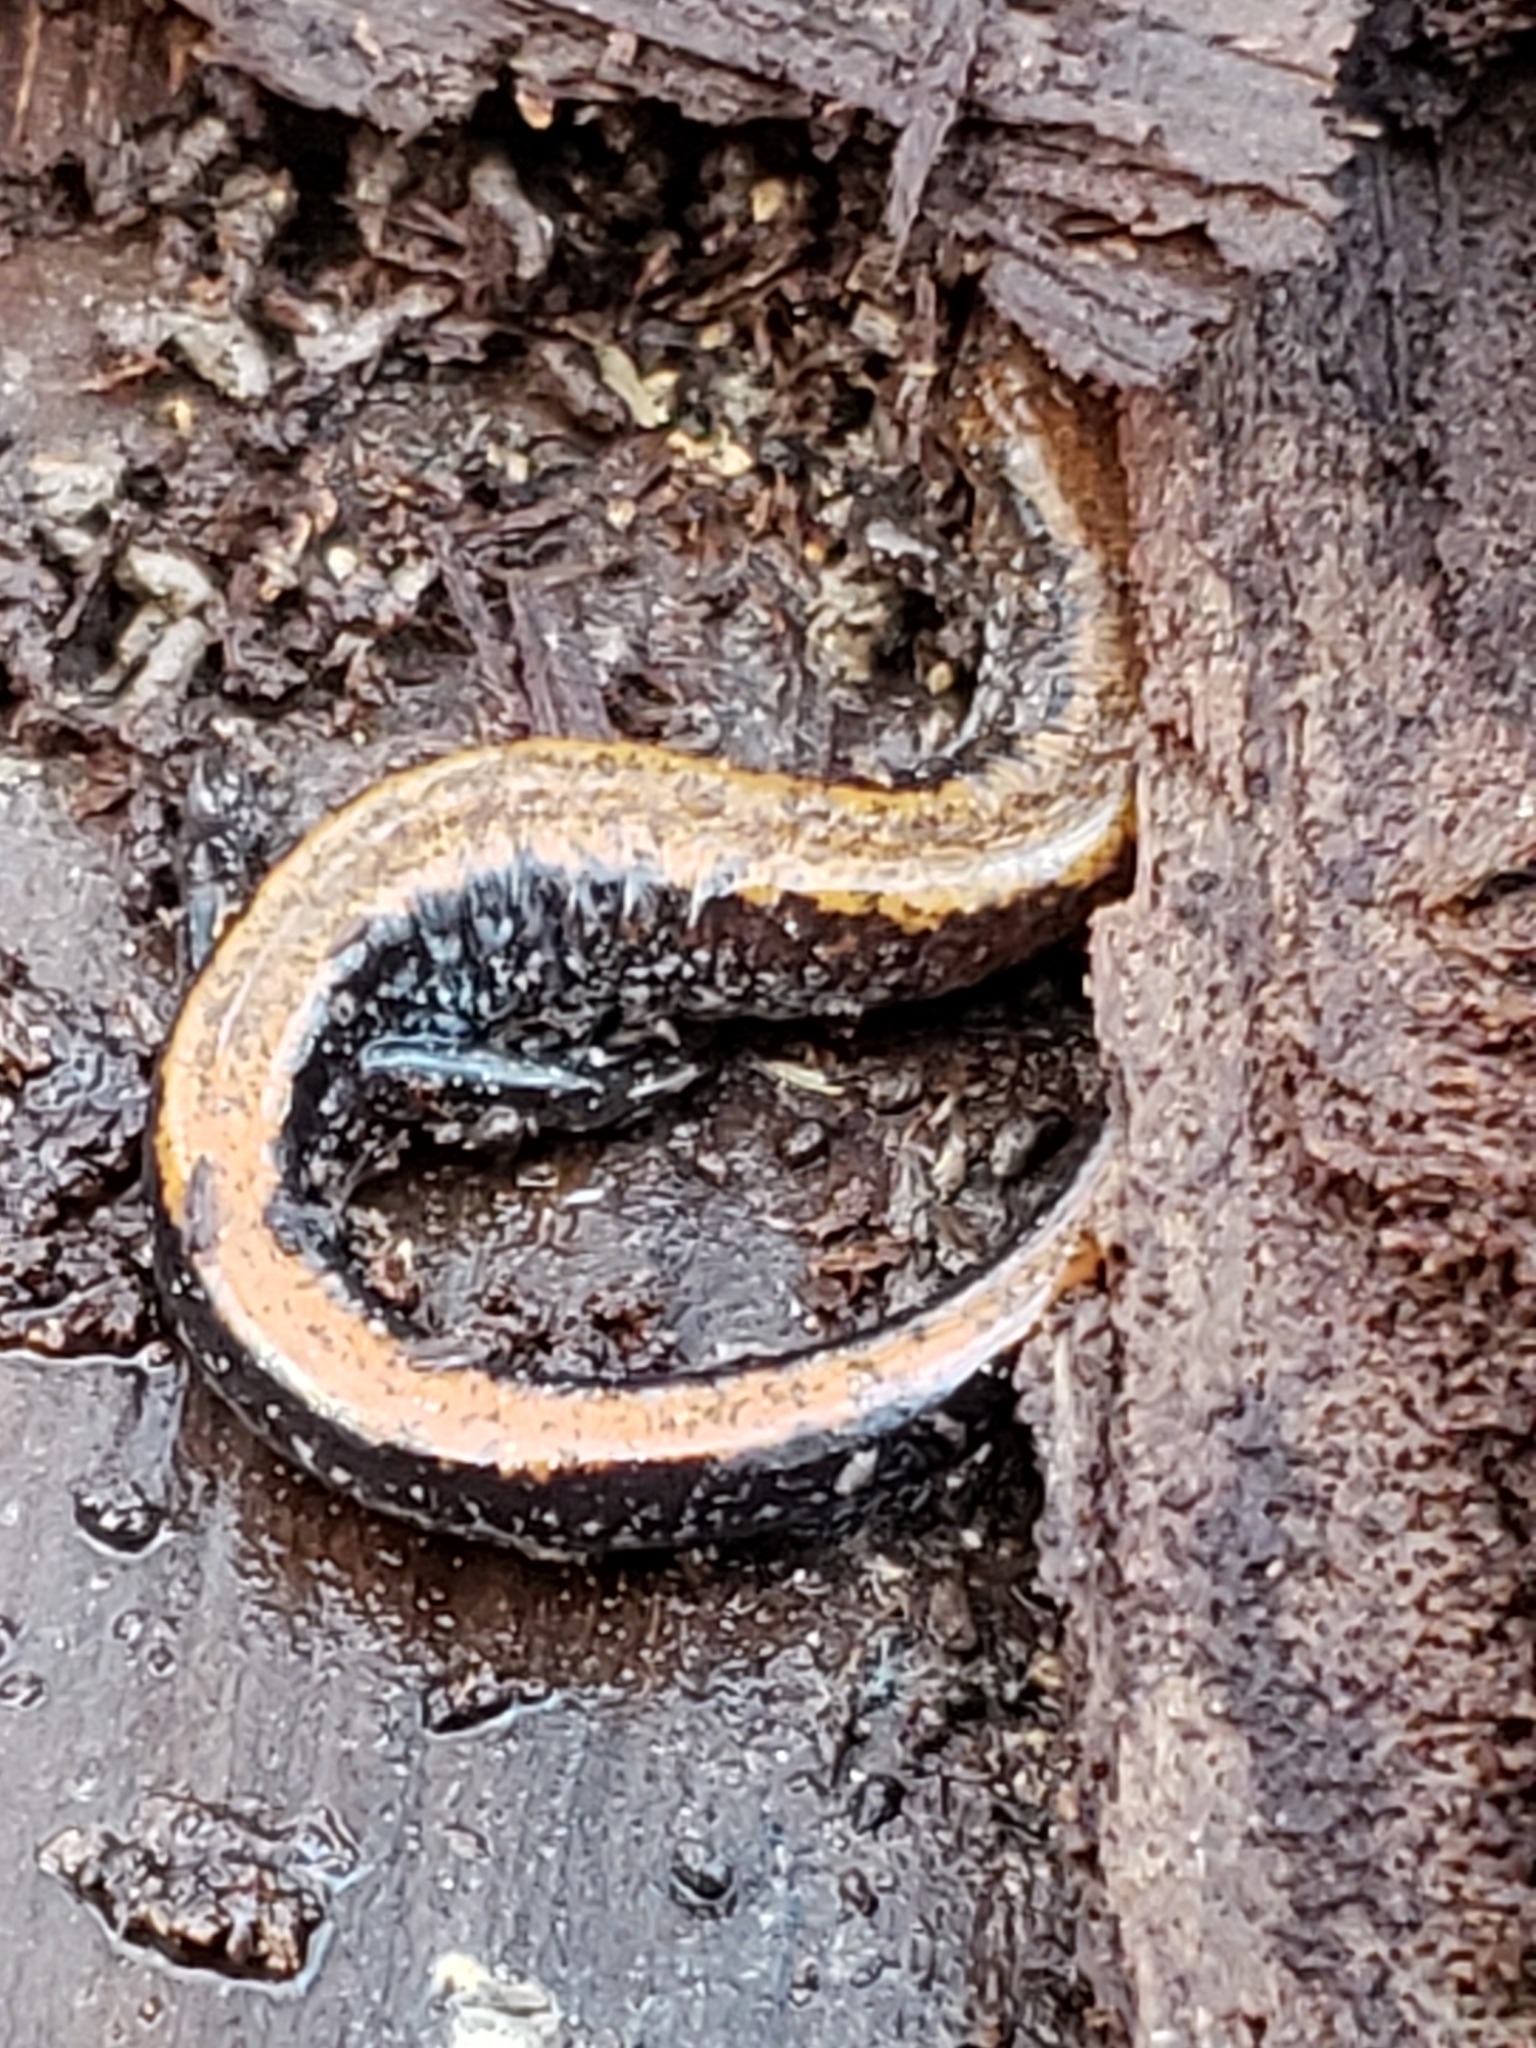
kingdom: Animalia
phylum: Chordata
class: Amphibia
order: Caudata
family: Plethodontidae
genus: Plethodon
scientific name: Plethodon cinereus
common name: Redback salamander
